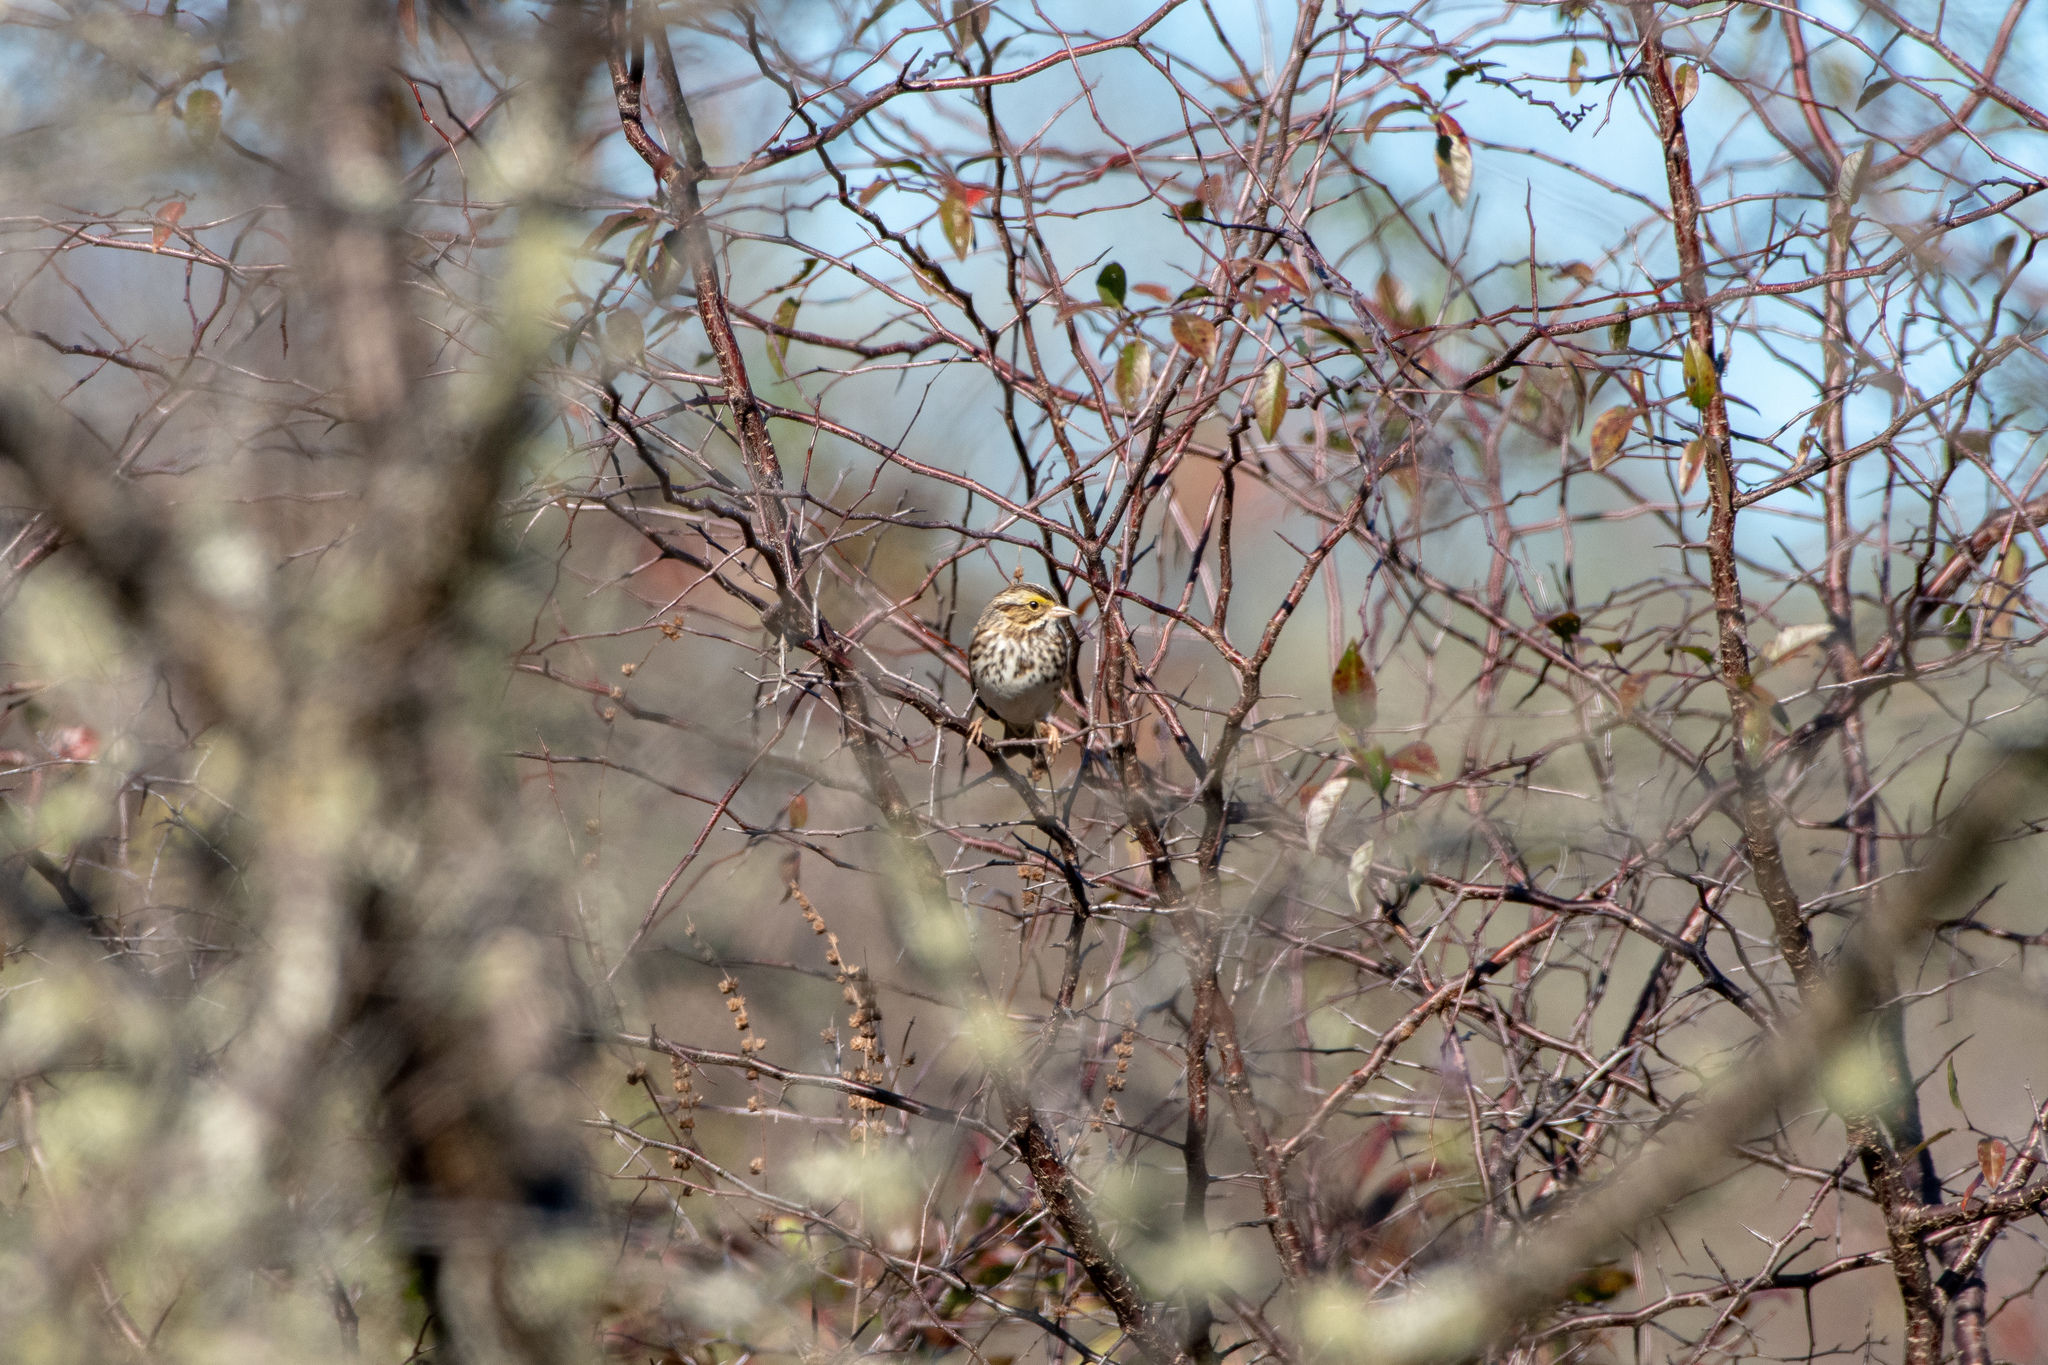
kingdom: Animalia
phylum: Chordata
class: Aves
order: Passeriformes
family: Passerellidae
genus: Passerculus
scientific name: Passerculus sandwichensis
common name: Savannah sparrow
